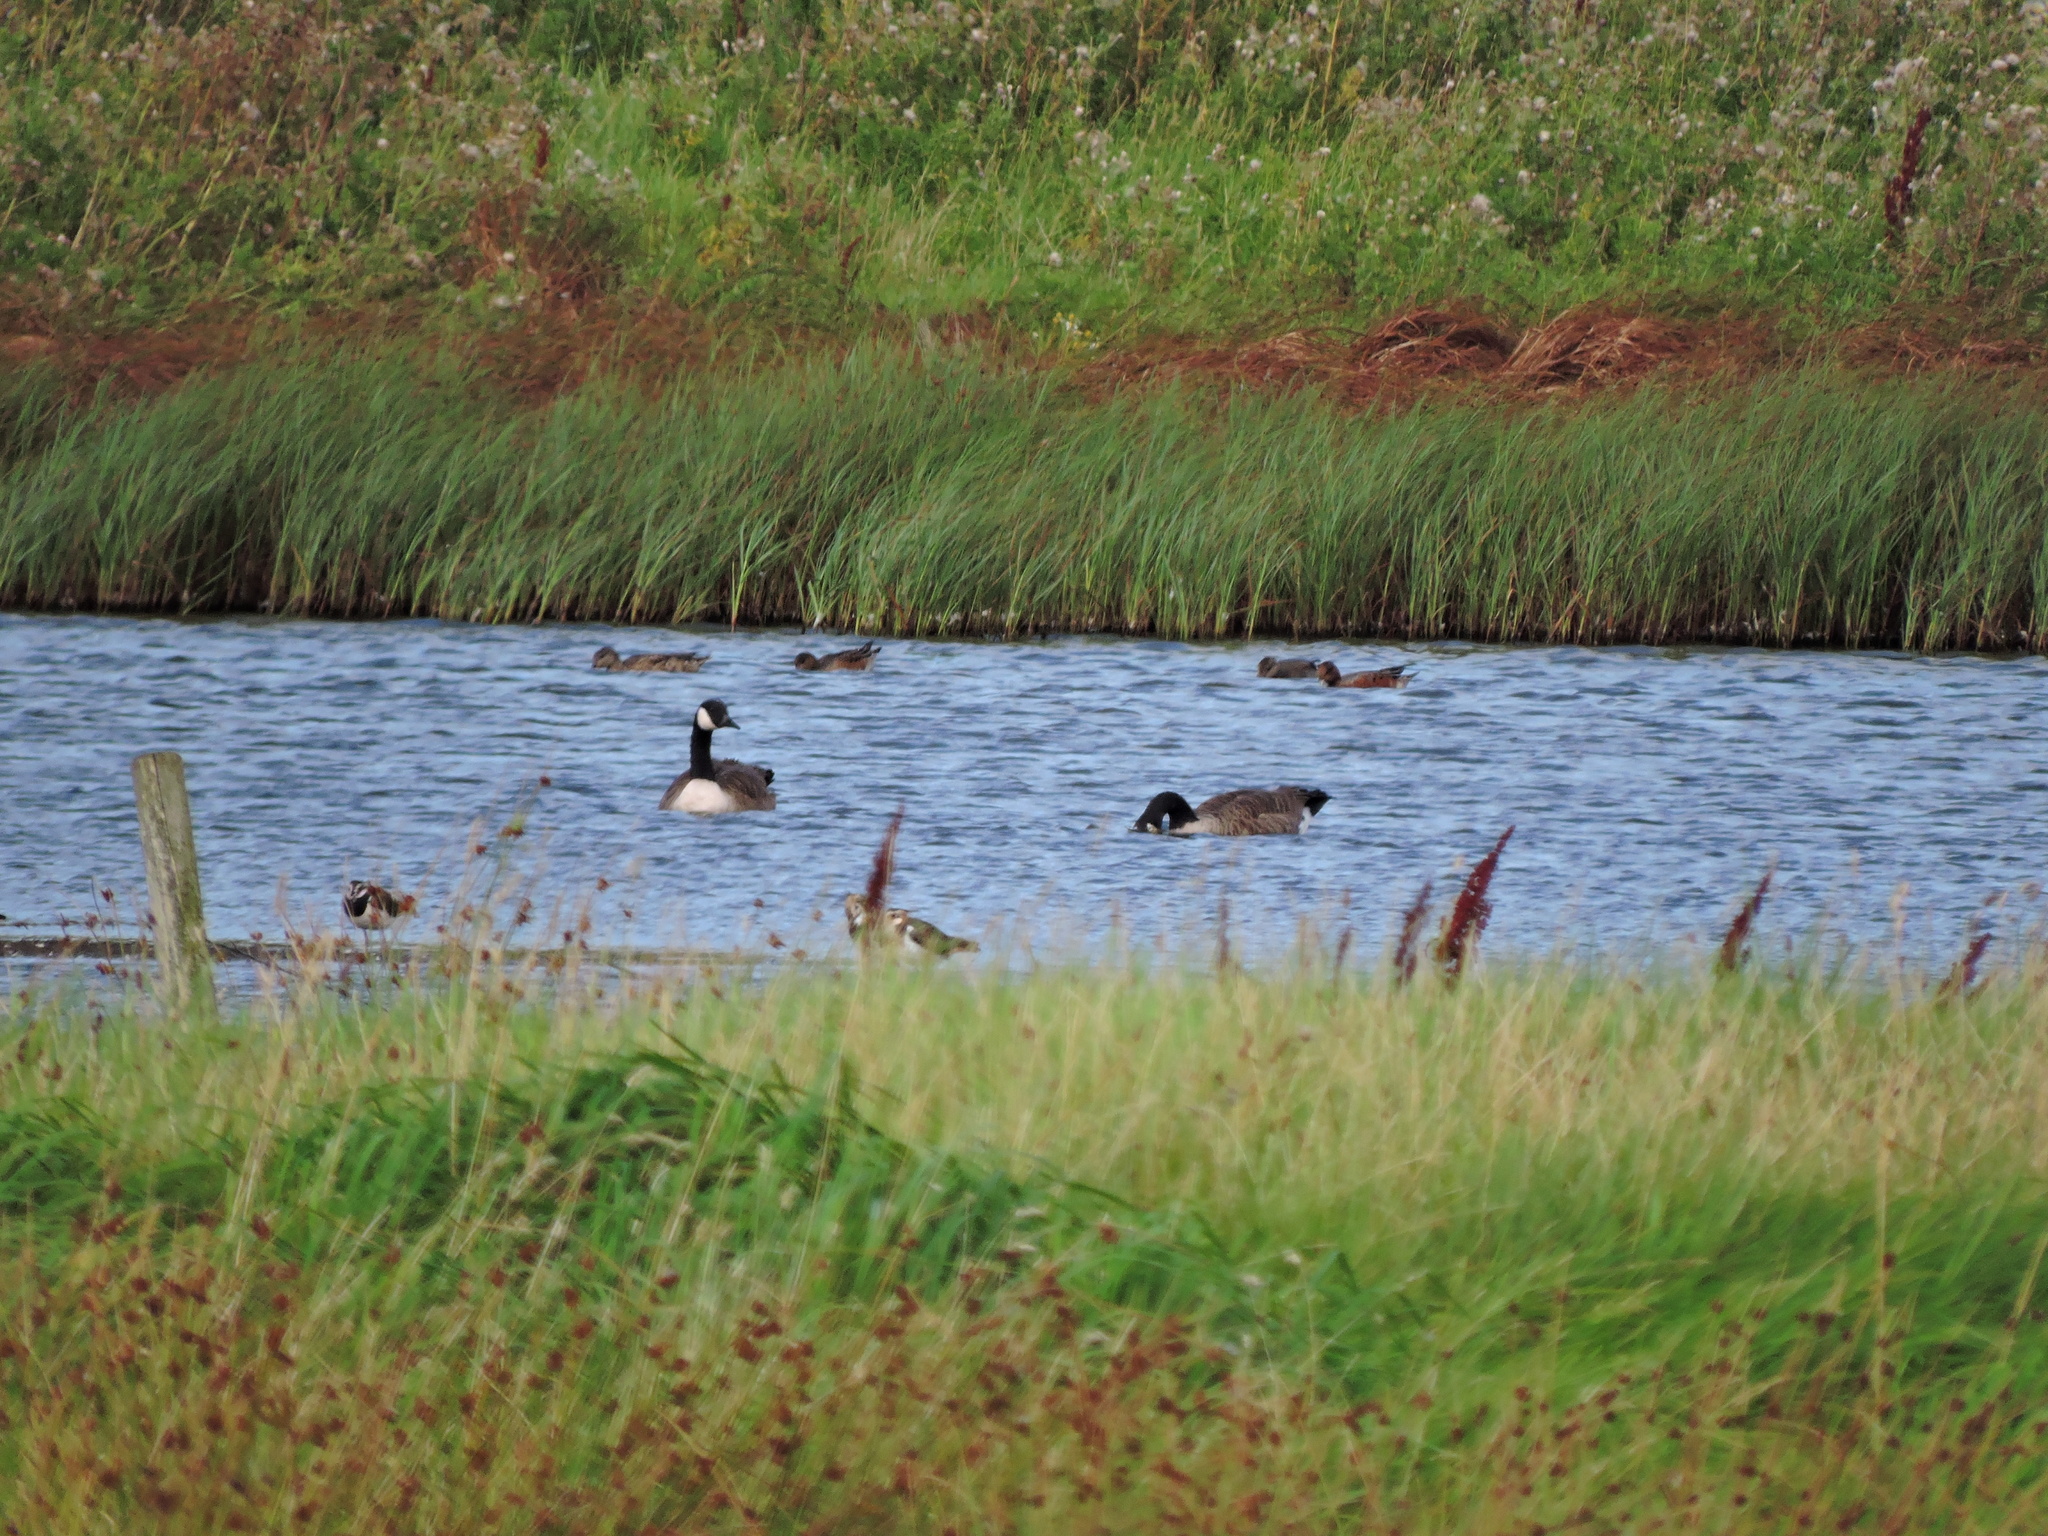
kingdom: Animalia
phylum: Chordata
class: Aves
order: Anseriformes
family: Anatidae
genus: Mareca
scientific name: Mareca strepera
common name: Gadwall
